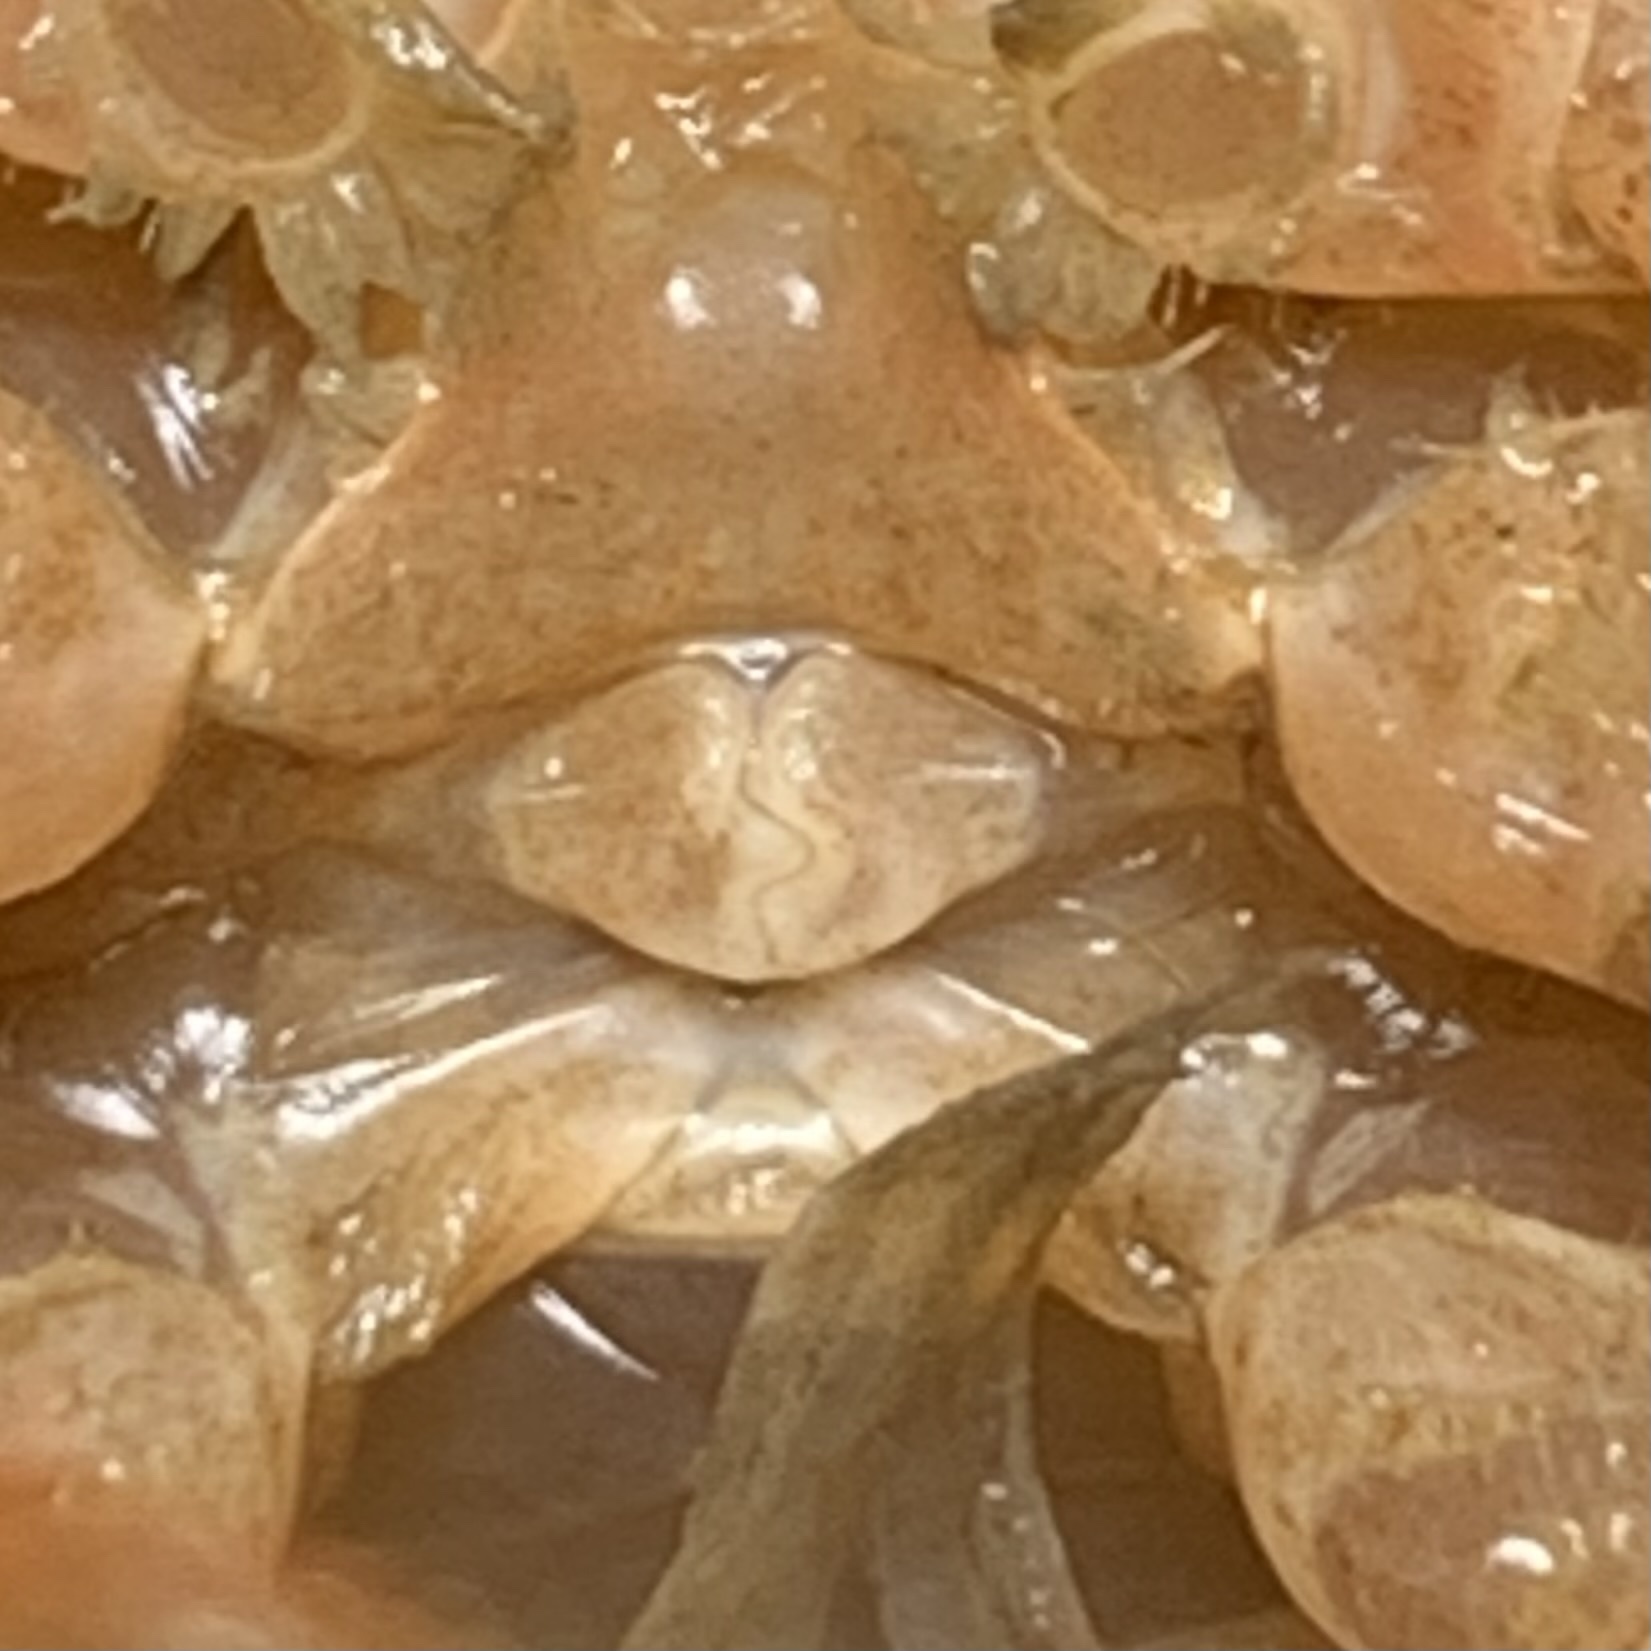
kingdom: Animalia
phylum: Arthropoda
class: Malacostraca
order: Decapoda
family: Cambaridae
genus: Procambarus
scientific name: Procambarus clarkii
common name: Red swamp crayfish
